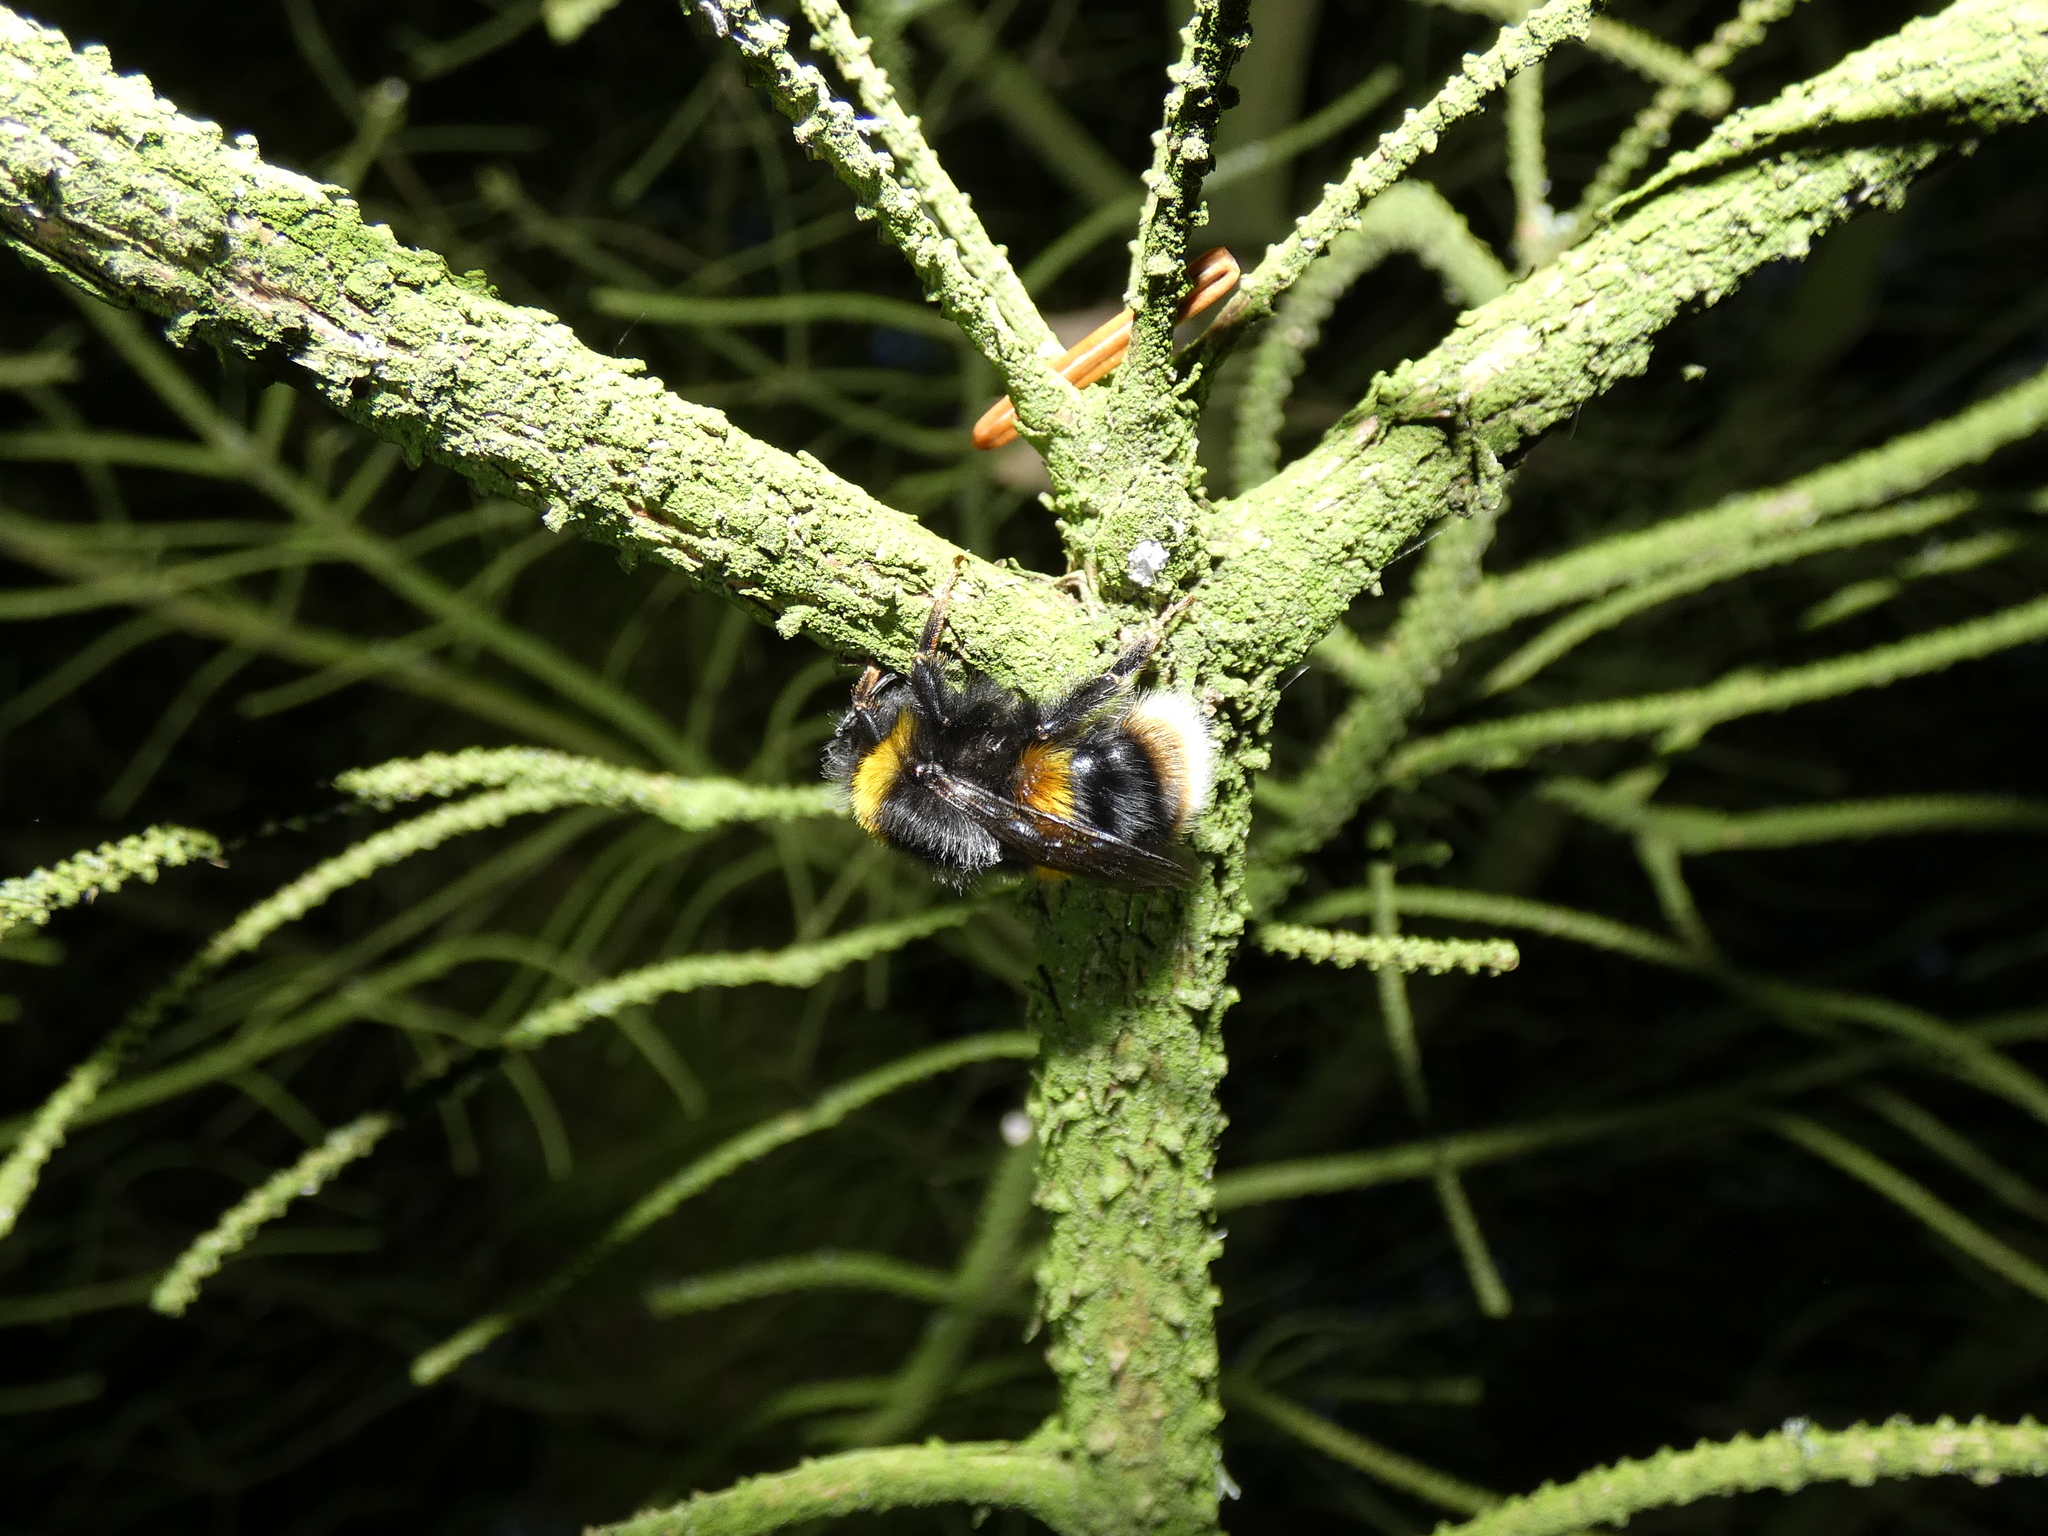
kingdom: Animalia
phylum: Arthropoda
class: Insecta
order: Hymenoptera
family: Apidae
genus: Bombus
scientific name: Bombus terrestris
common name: Buff-tailed bumblebee
